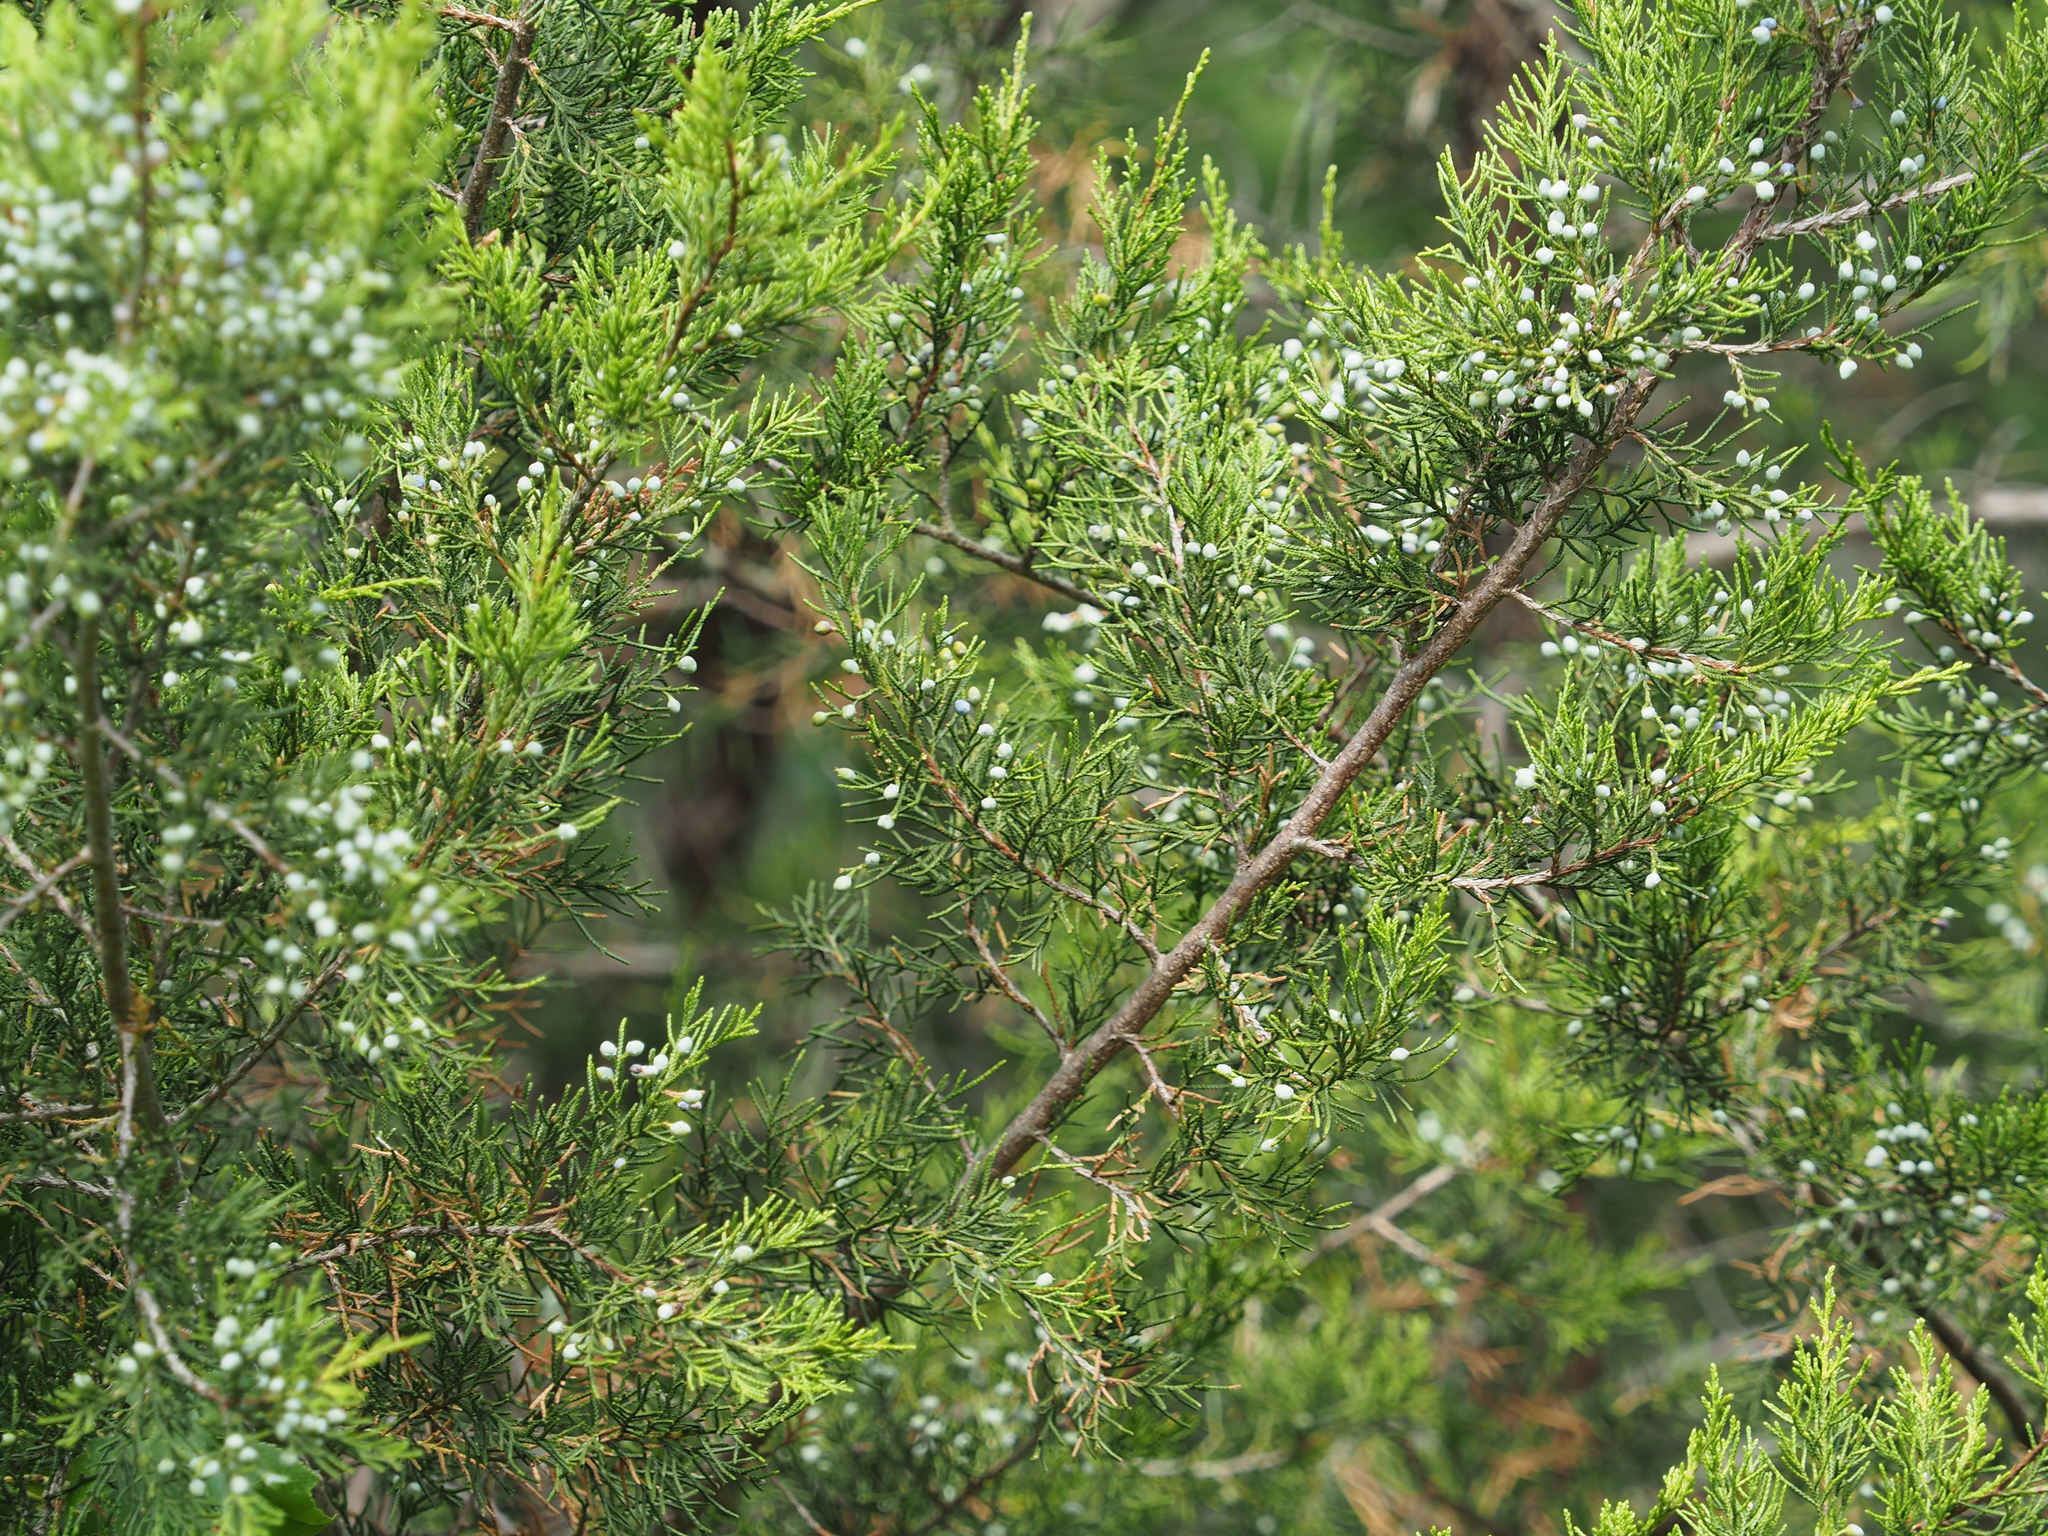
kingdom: Plantae
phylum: Tracheophyta
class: Pinopsida
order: Pinales
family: Cupressaceae
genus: Juniperus
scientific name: Juniperus virginiana
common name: Red juniper
